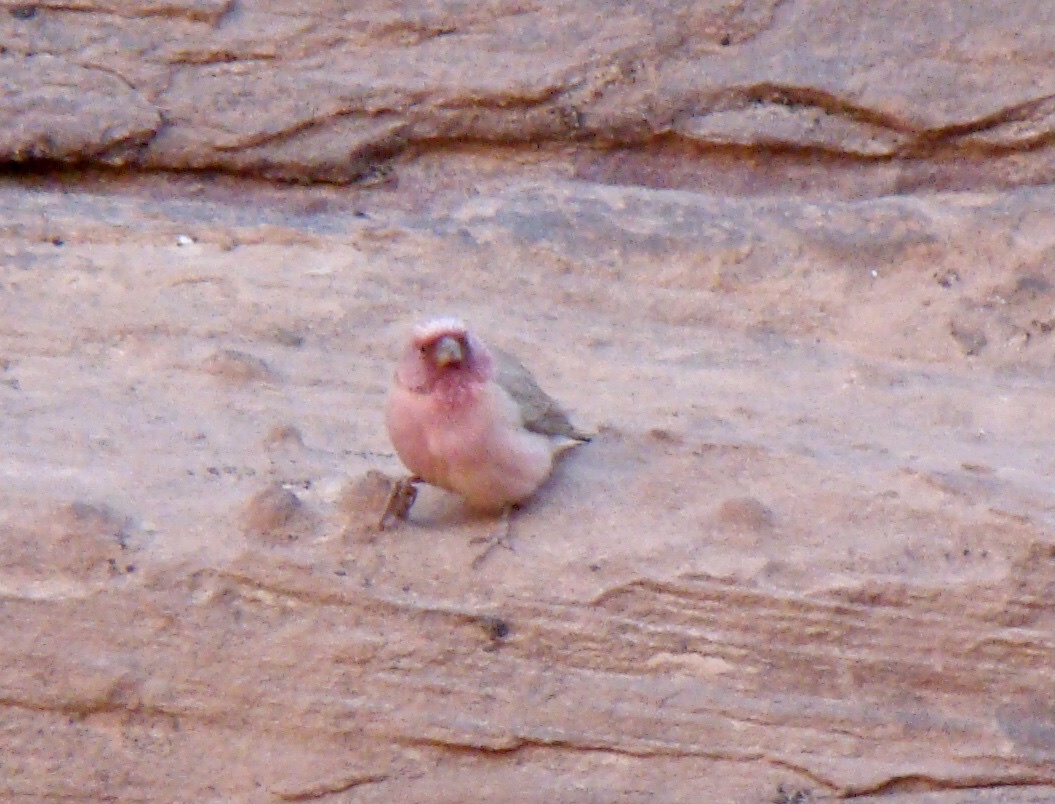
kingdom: Animalia
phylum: Chordata
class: Aves
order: Passeriformes
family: Fringillidae
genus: Carpodacus
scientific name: Carpodacus synoicus
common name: Sinai rosefinch
